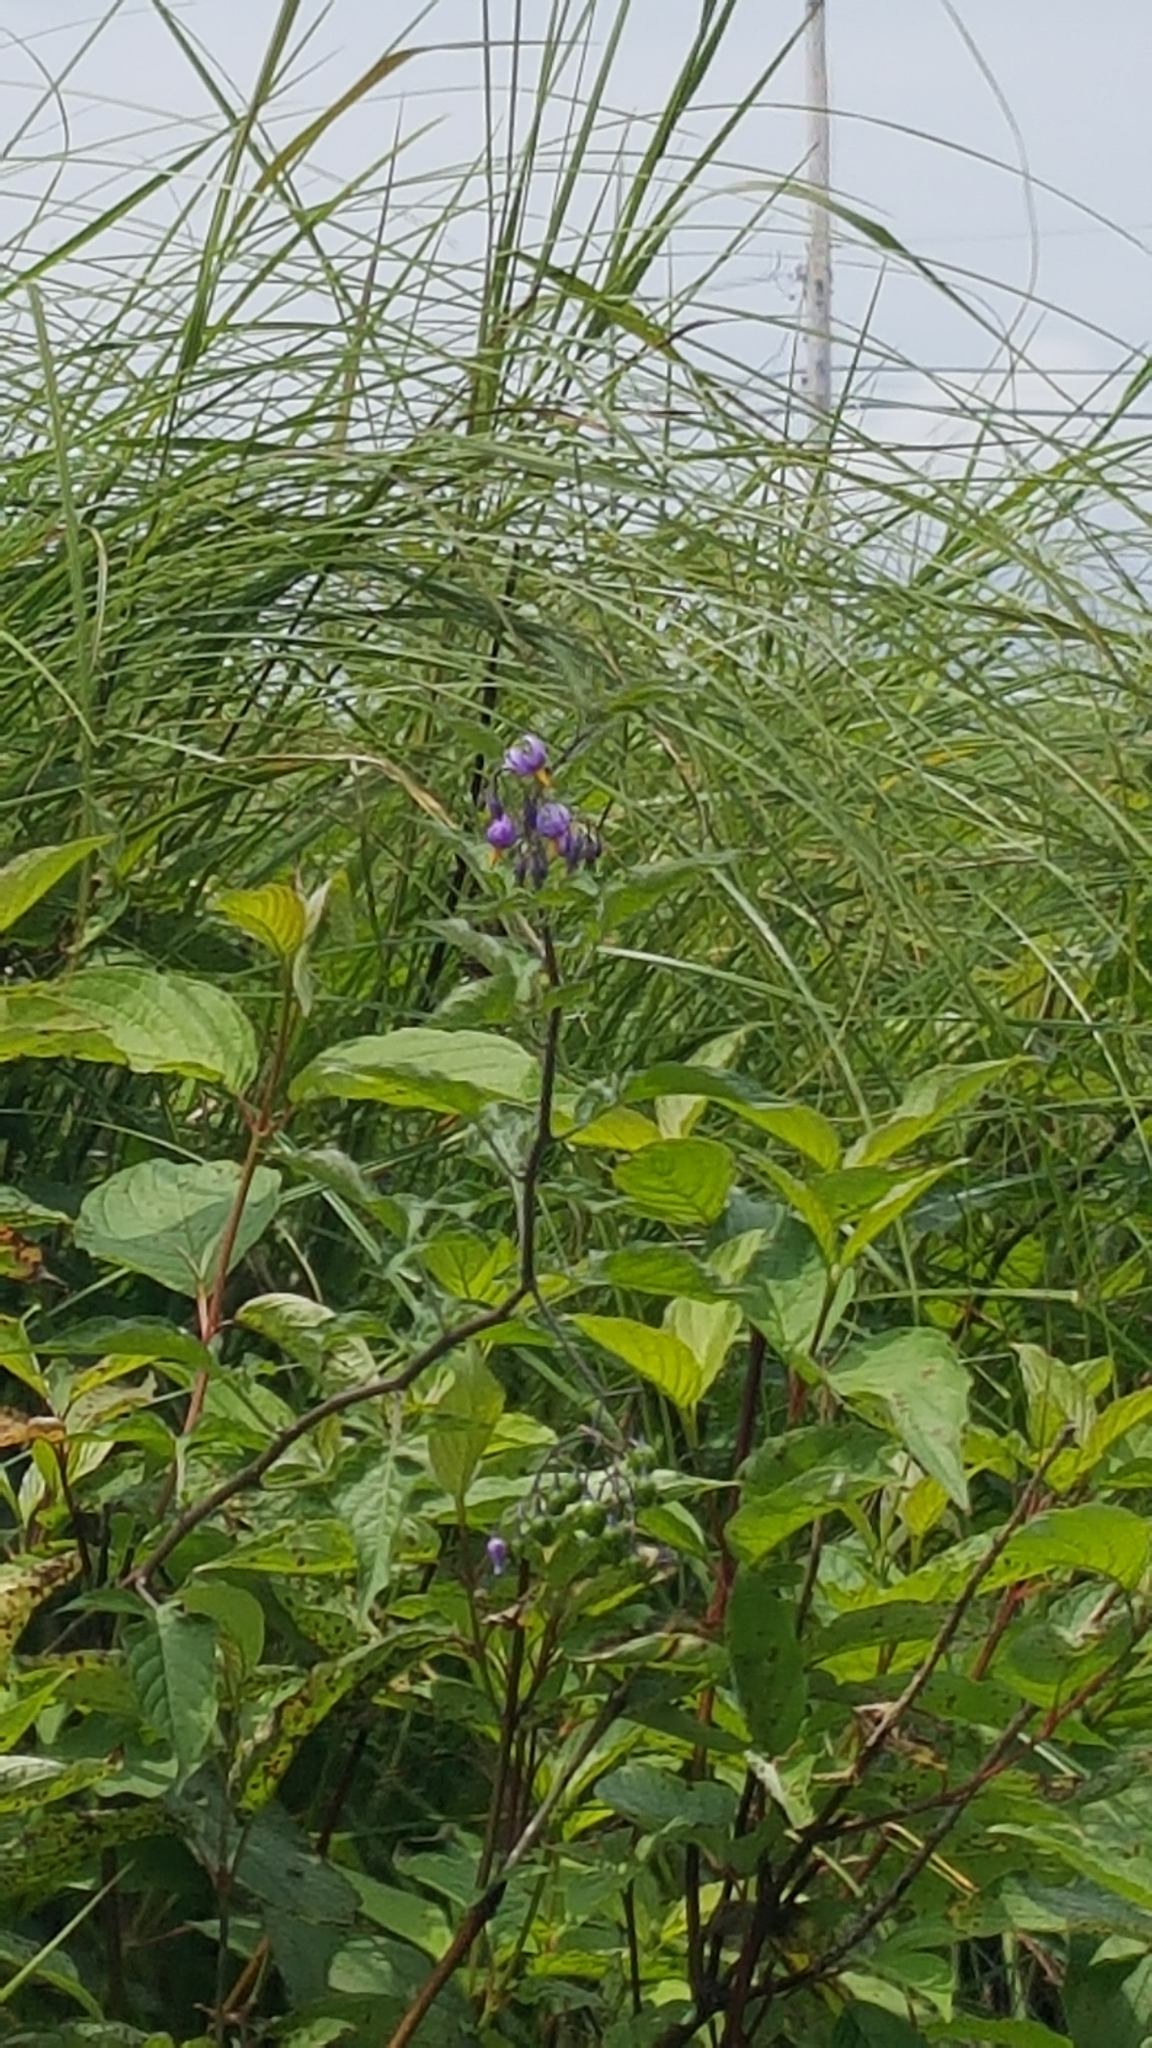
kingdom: Plantae
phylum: Tracheophyta
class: Magnoliopsida
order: Solanales
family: Solanaceae
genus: Solanum
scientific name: Solanum dulcamara
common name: Climbing nightshade
